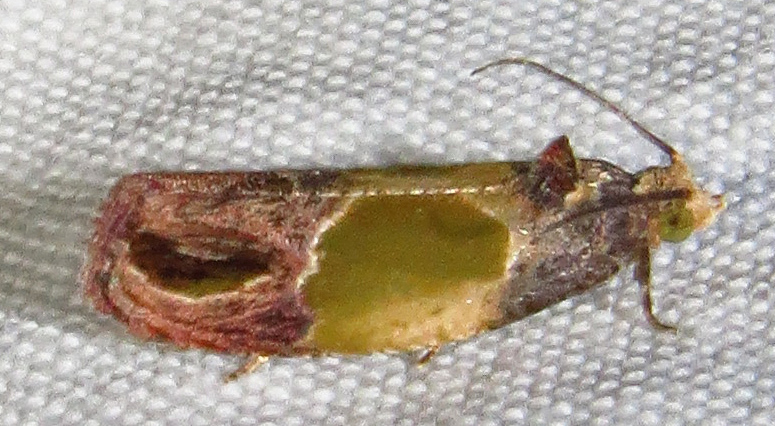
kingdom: Animalia
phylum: Arthropoda
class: Insecta
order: Lepidoptera
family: Tortricidae
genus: Eumarozia
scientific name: Eumarozia malachitana
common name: Sculptured moth
